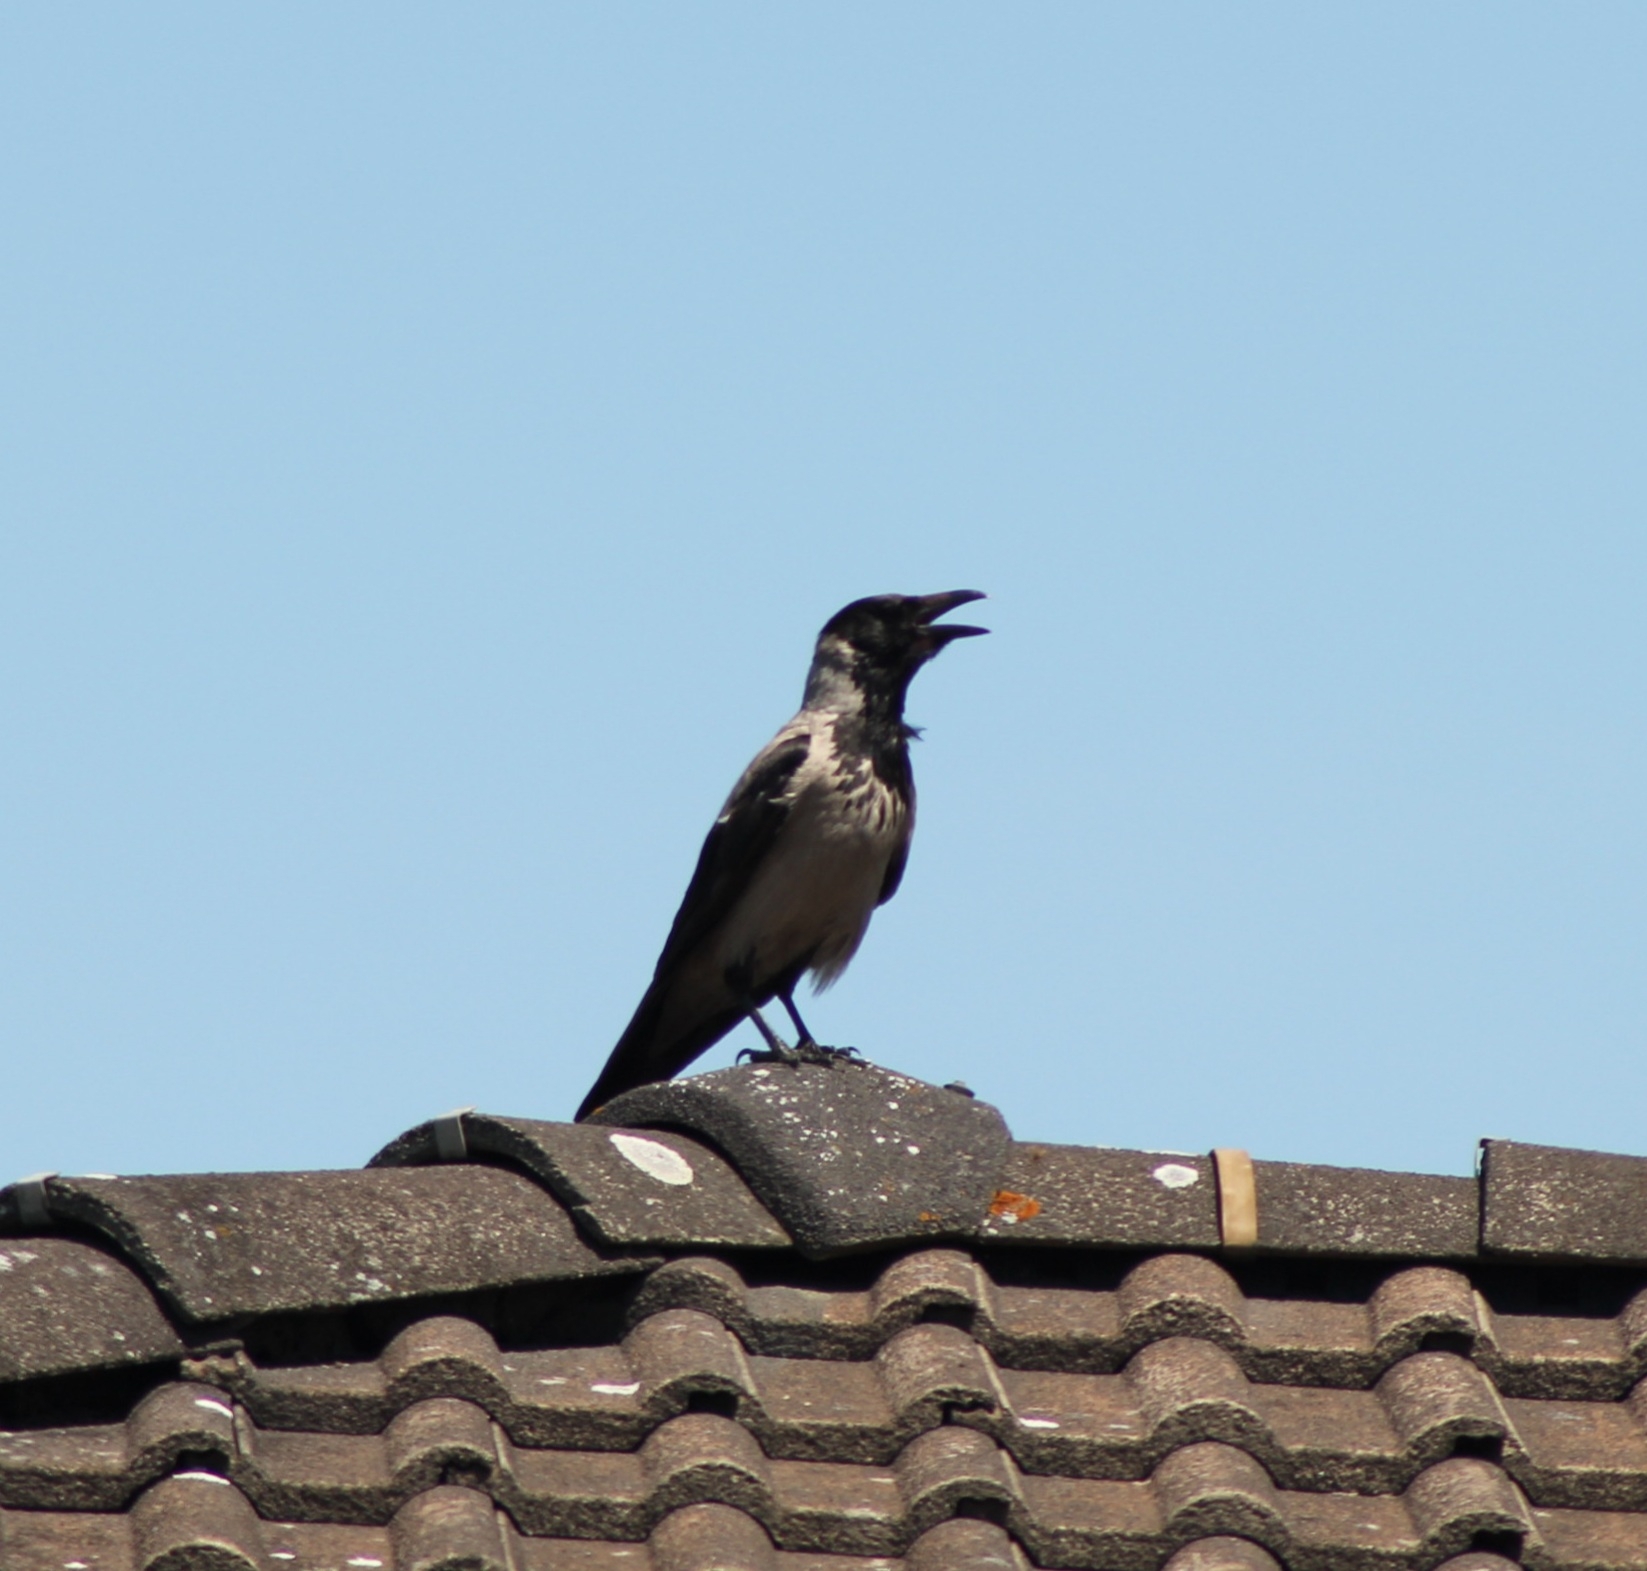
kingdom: Animalia
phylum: Chordata
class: Aves
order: Passeriformes
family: Corvidae
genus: Corvus
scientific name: Corvus cornix
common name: Hooded crow
